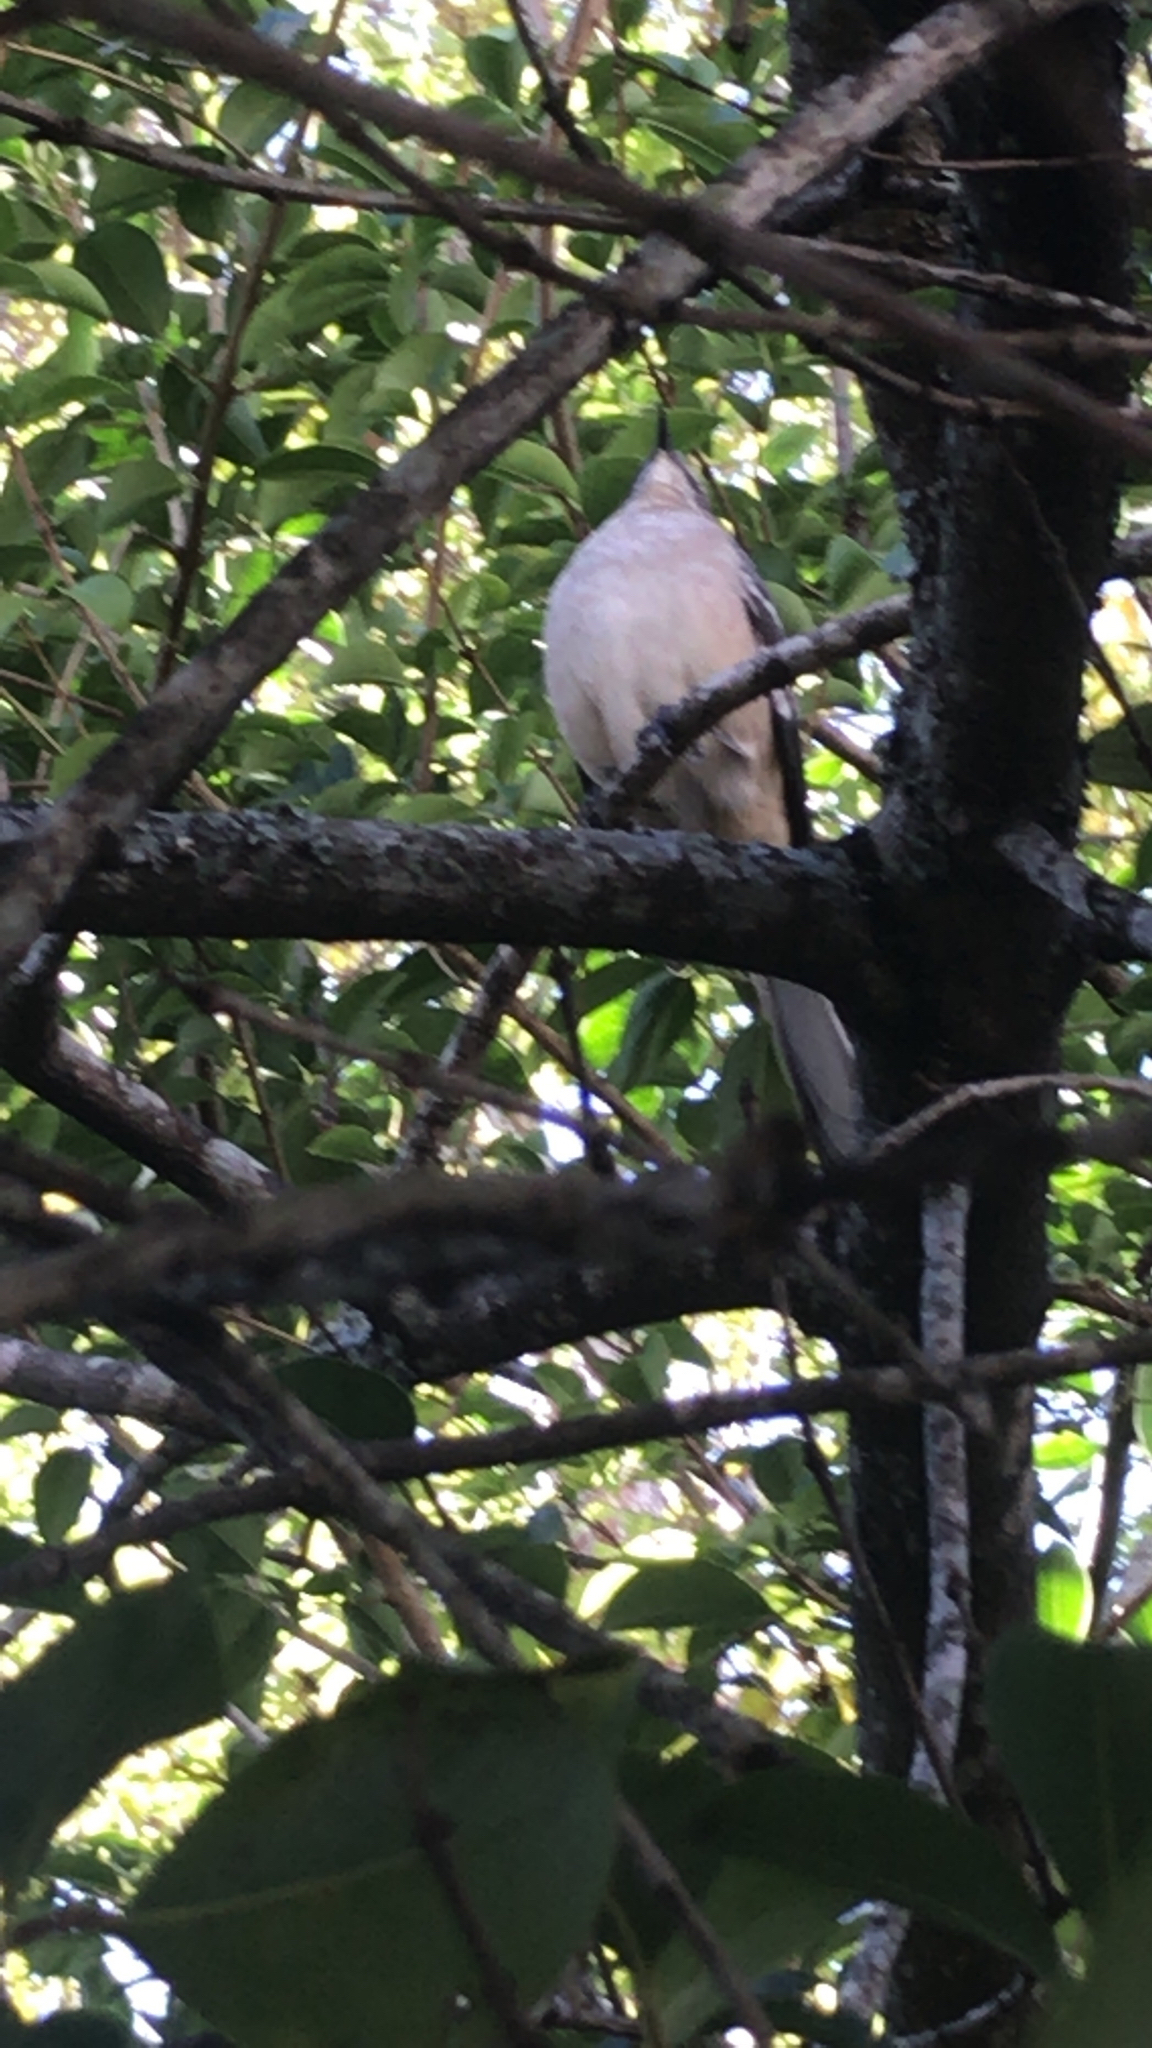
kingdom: Animalia
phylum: Chordata
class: Aves
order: Passeriformes
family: Mimidae
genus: Mimus
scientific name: Mimus polyglottos
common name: Northern mockingbird
